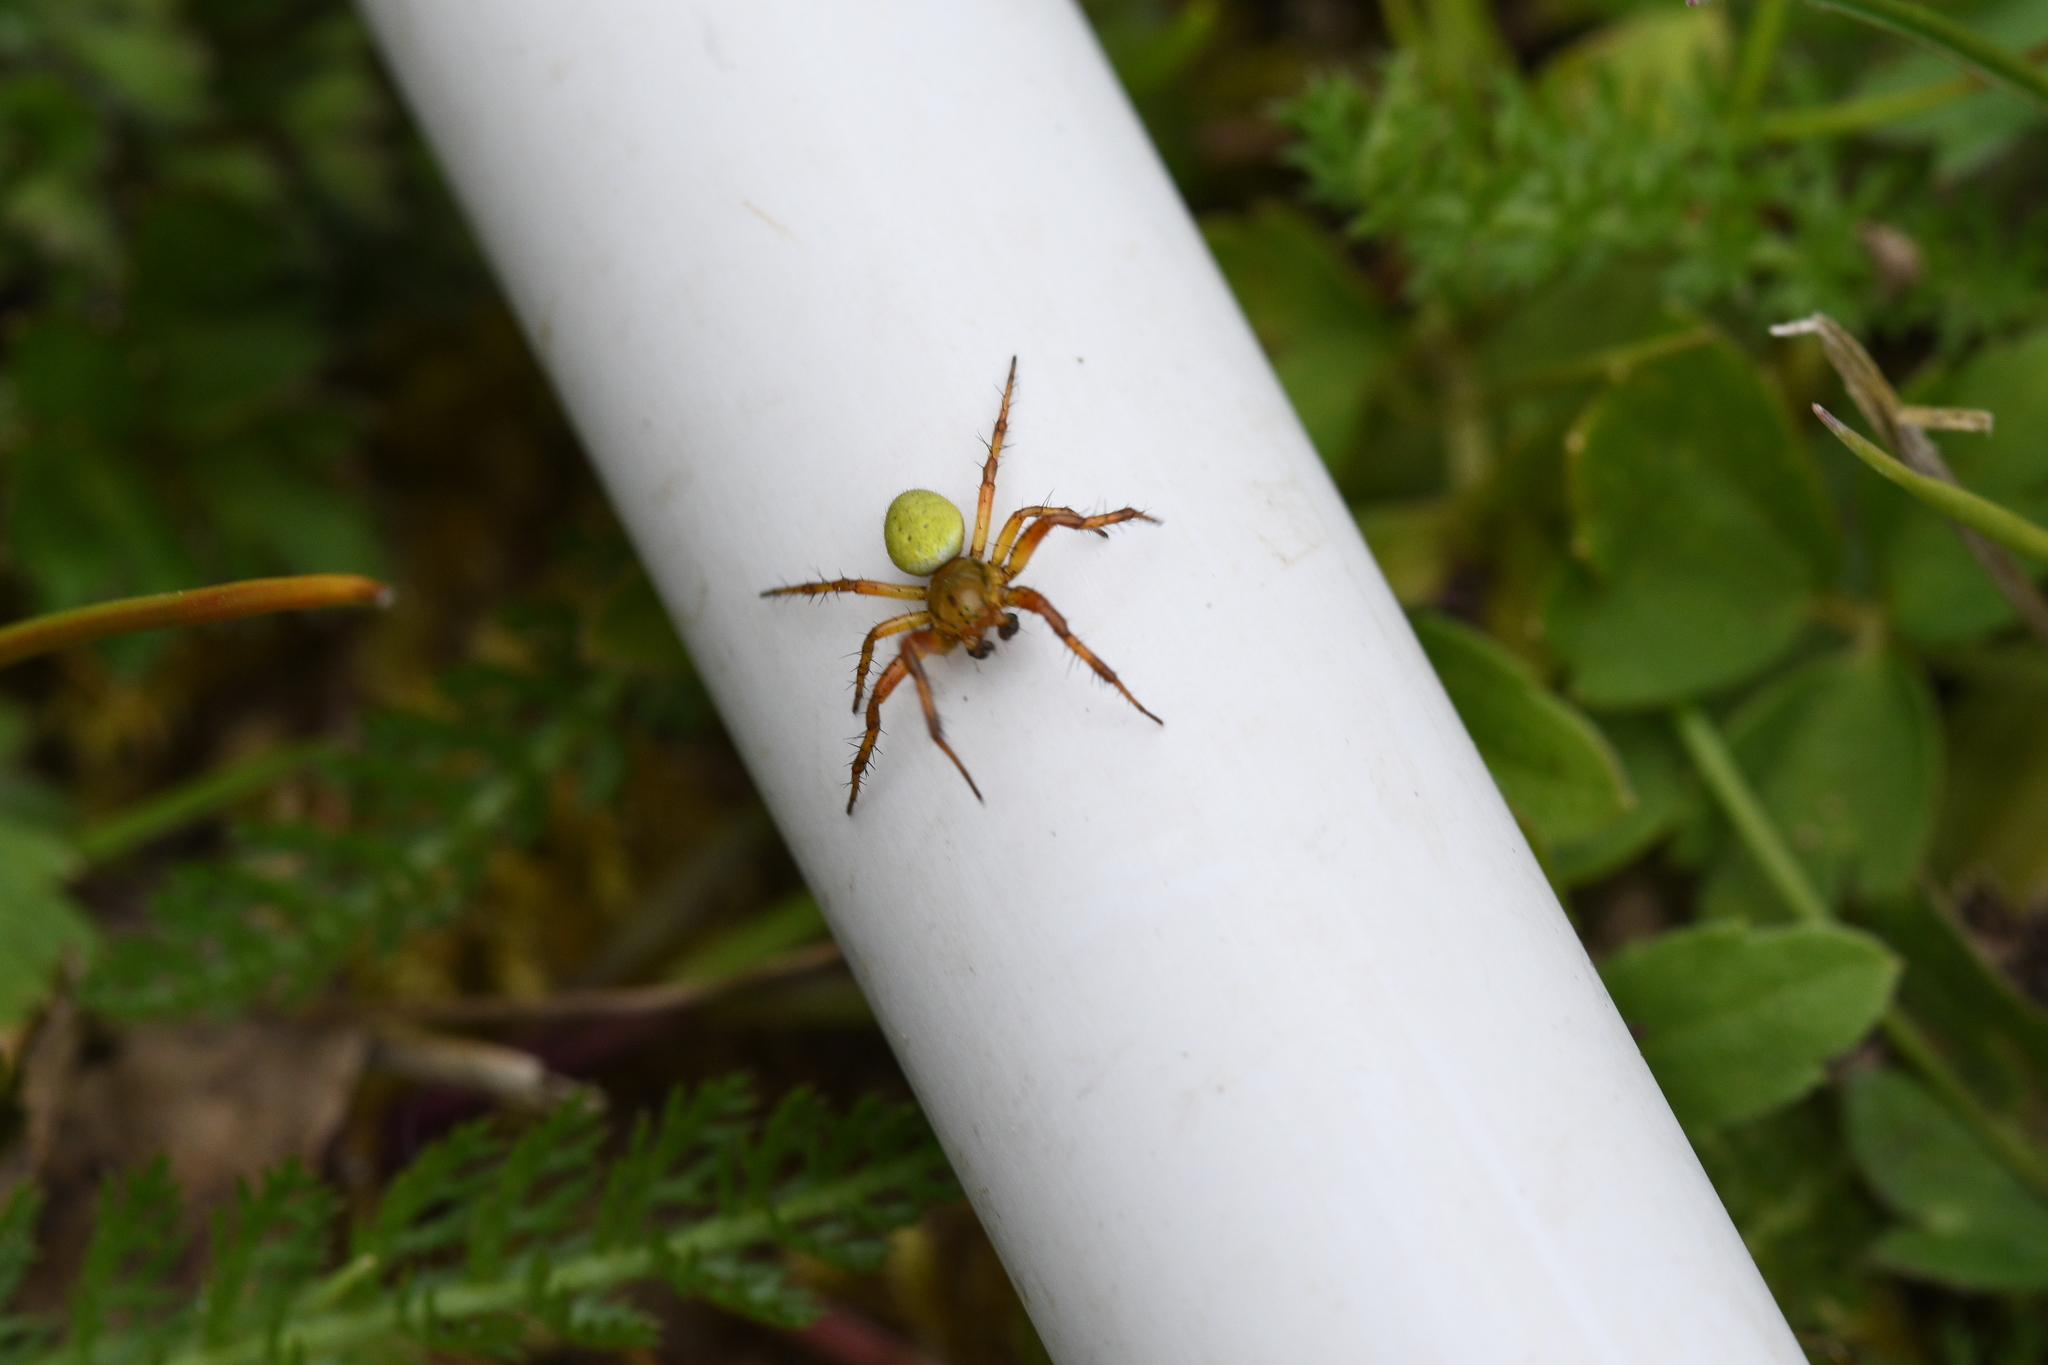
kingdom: Animalia
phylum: Arthropoda
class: Arachnida
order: Araneae
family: Araneidae
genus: Araniella
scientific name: Araniella
